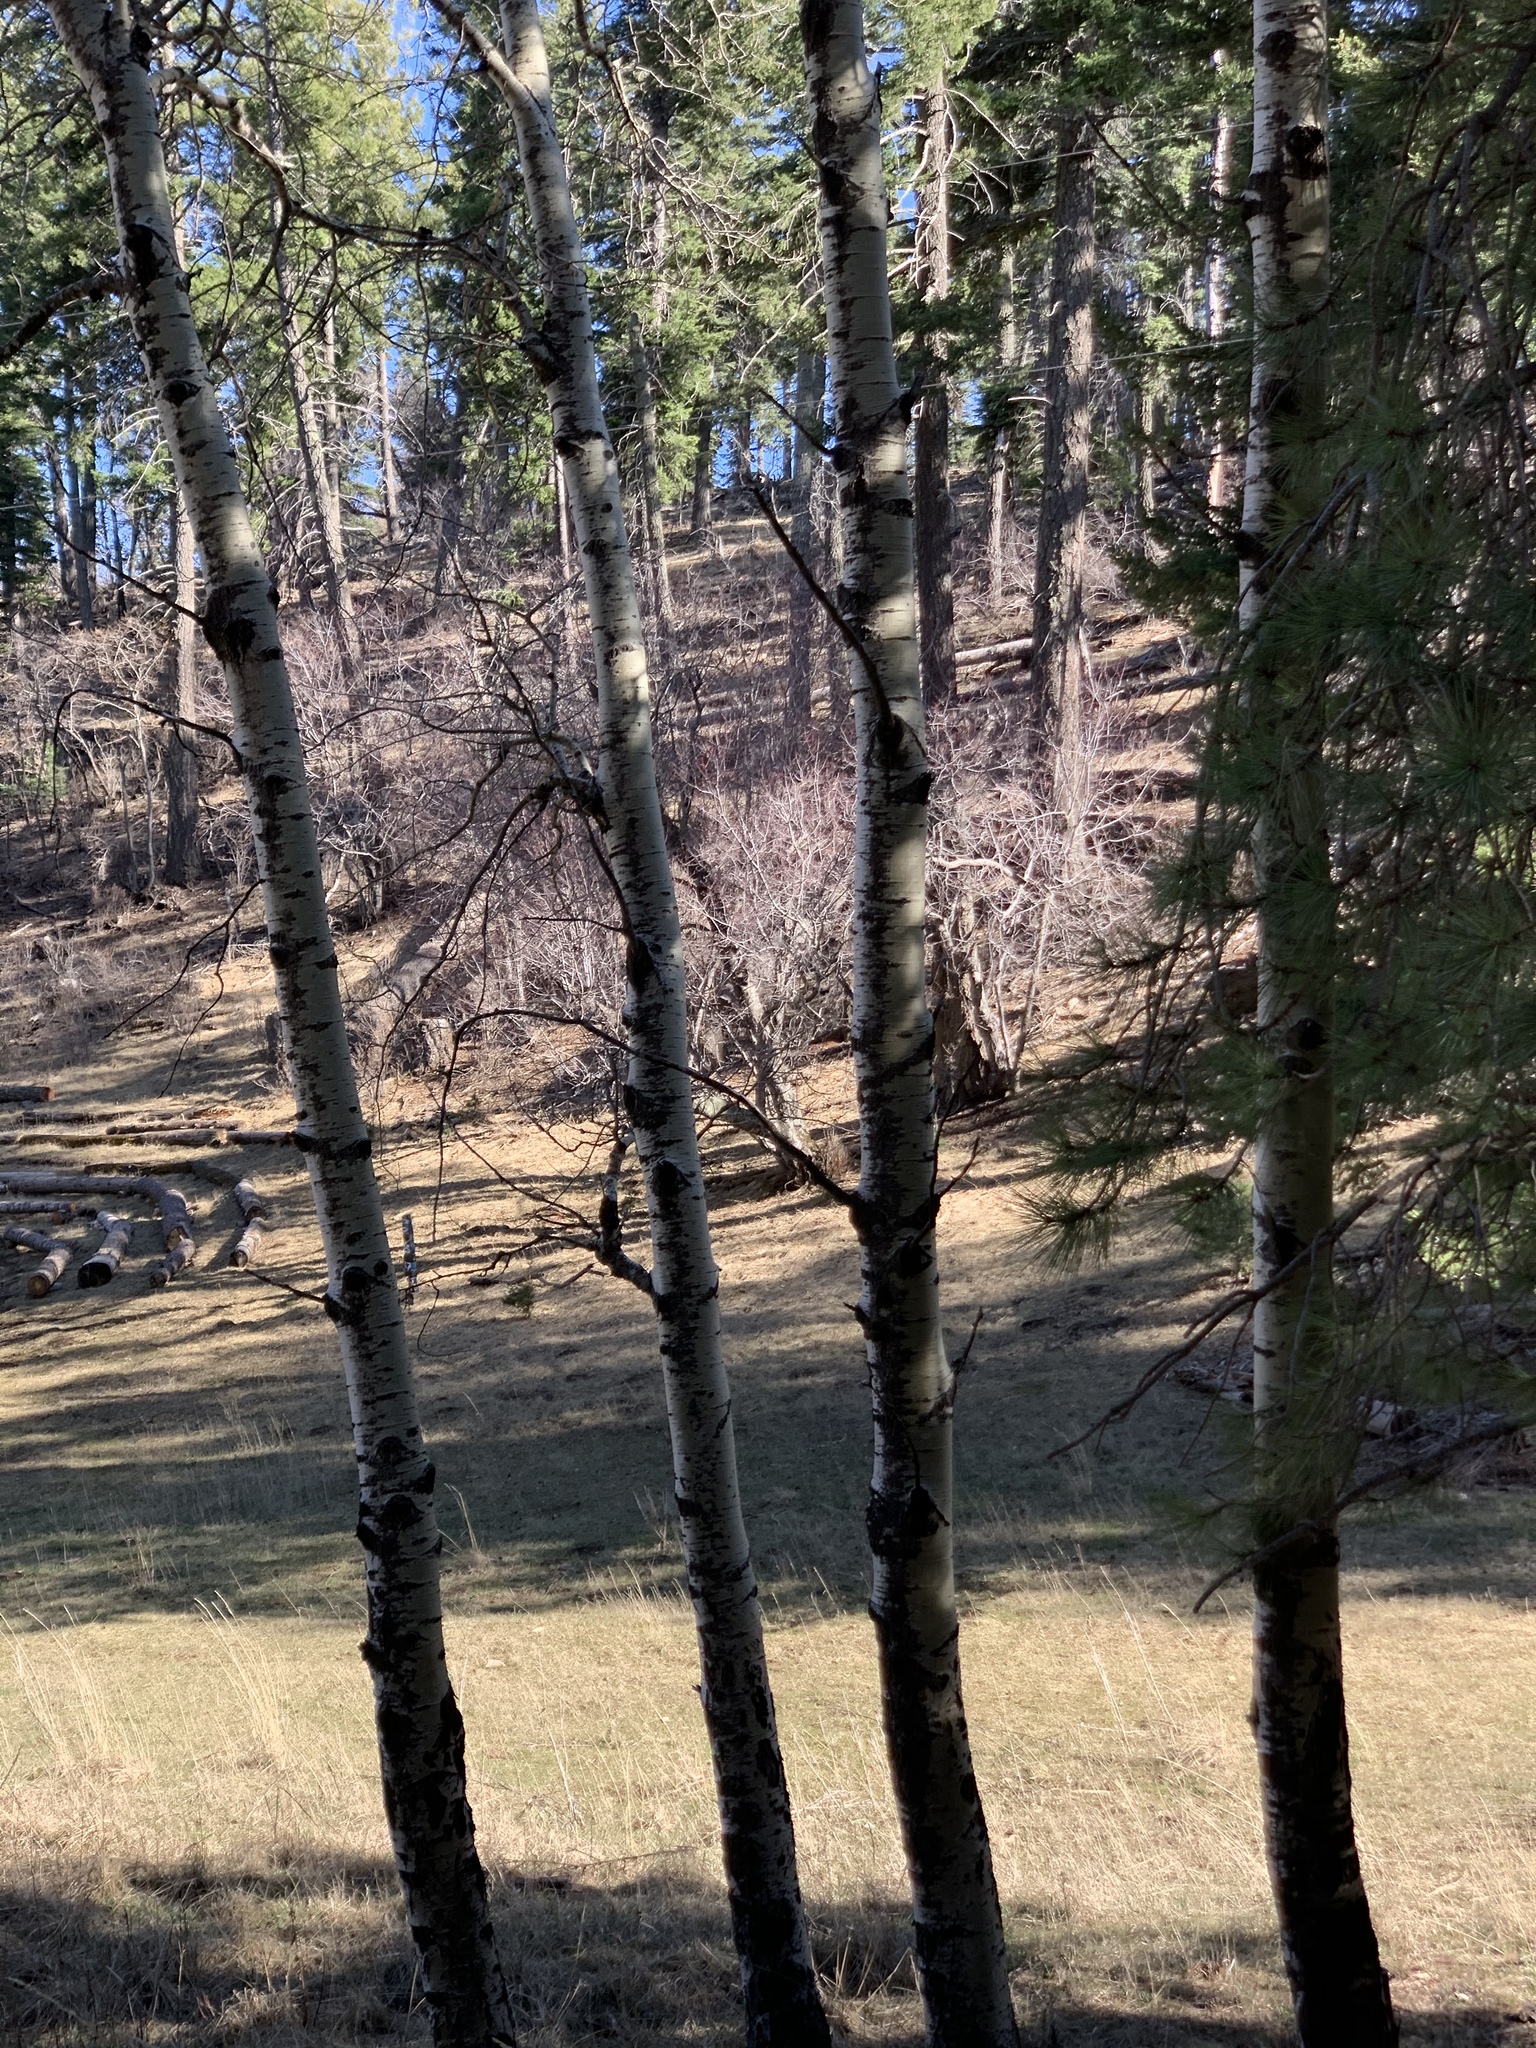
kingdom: Plantae
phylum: Tracheophyta
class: Magnoliopsida
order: Malpighiales
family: Salicaceae
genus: Populus
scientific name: Populus tremuloides
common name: Quaking aspen
